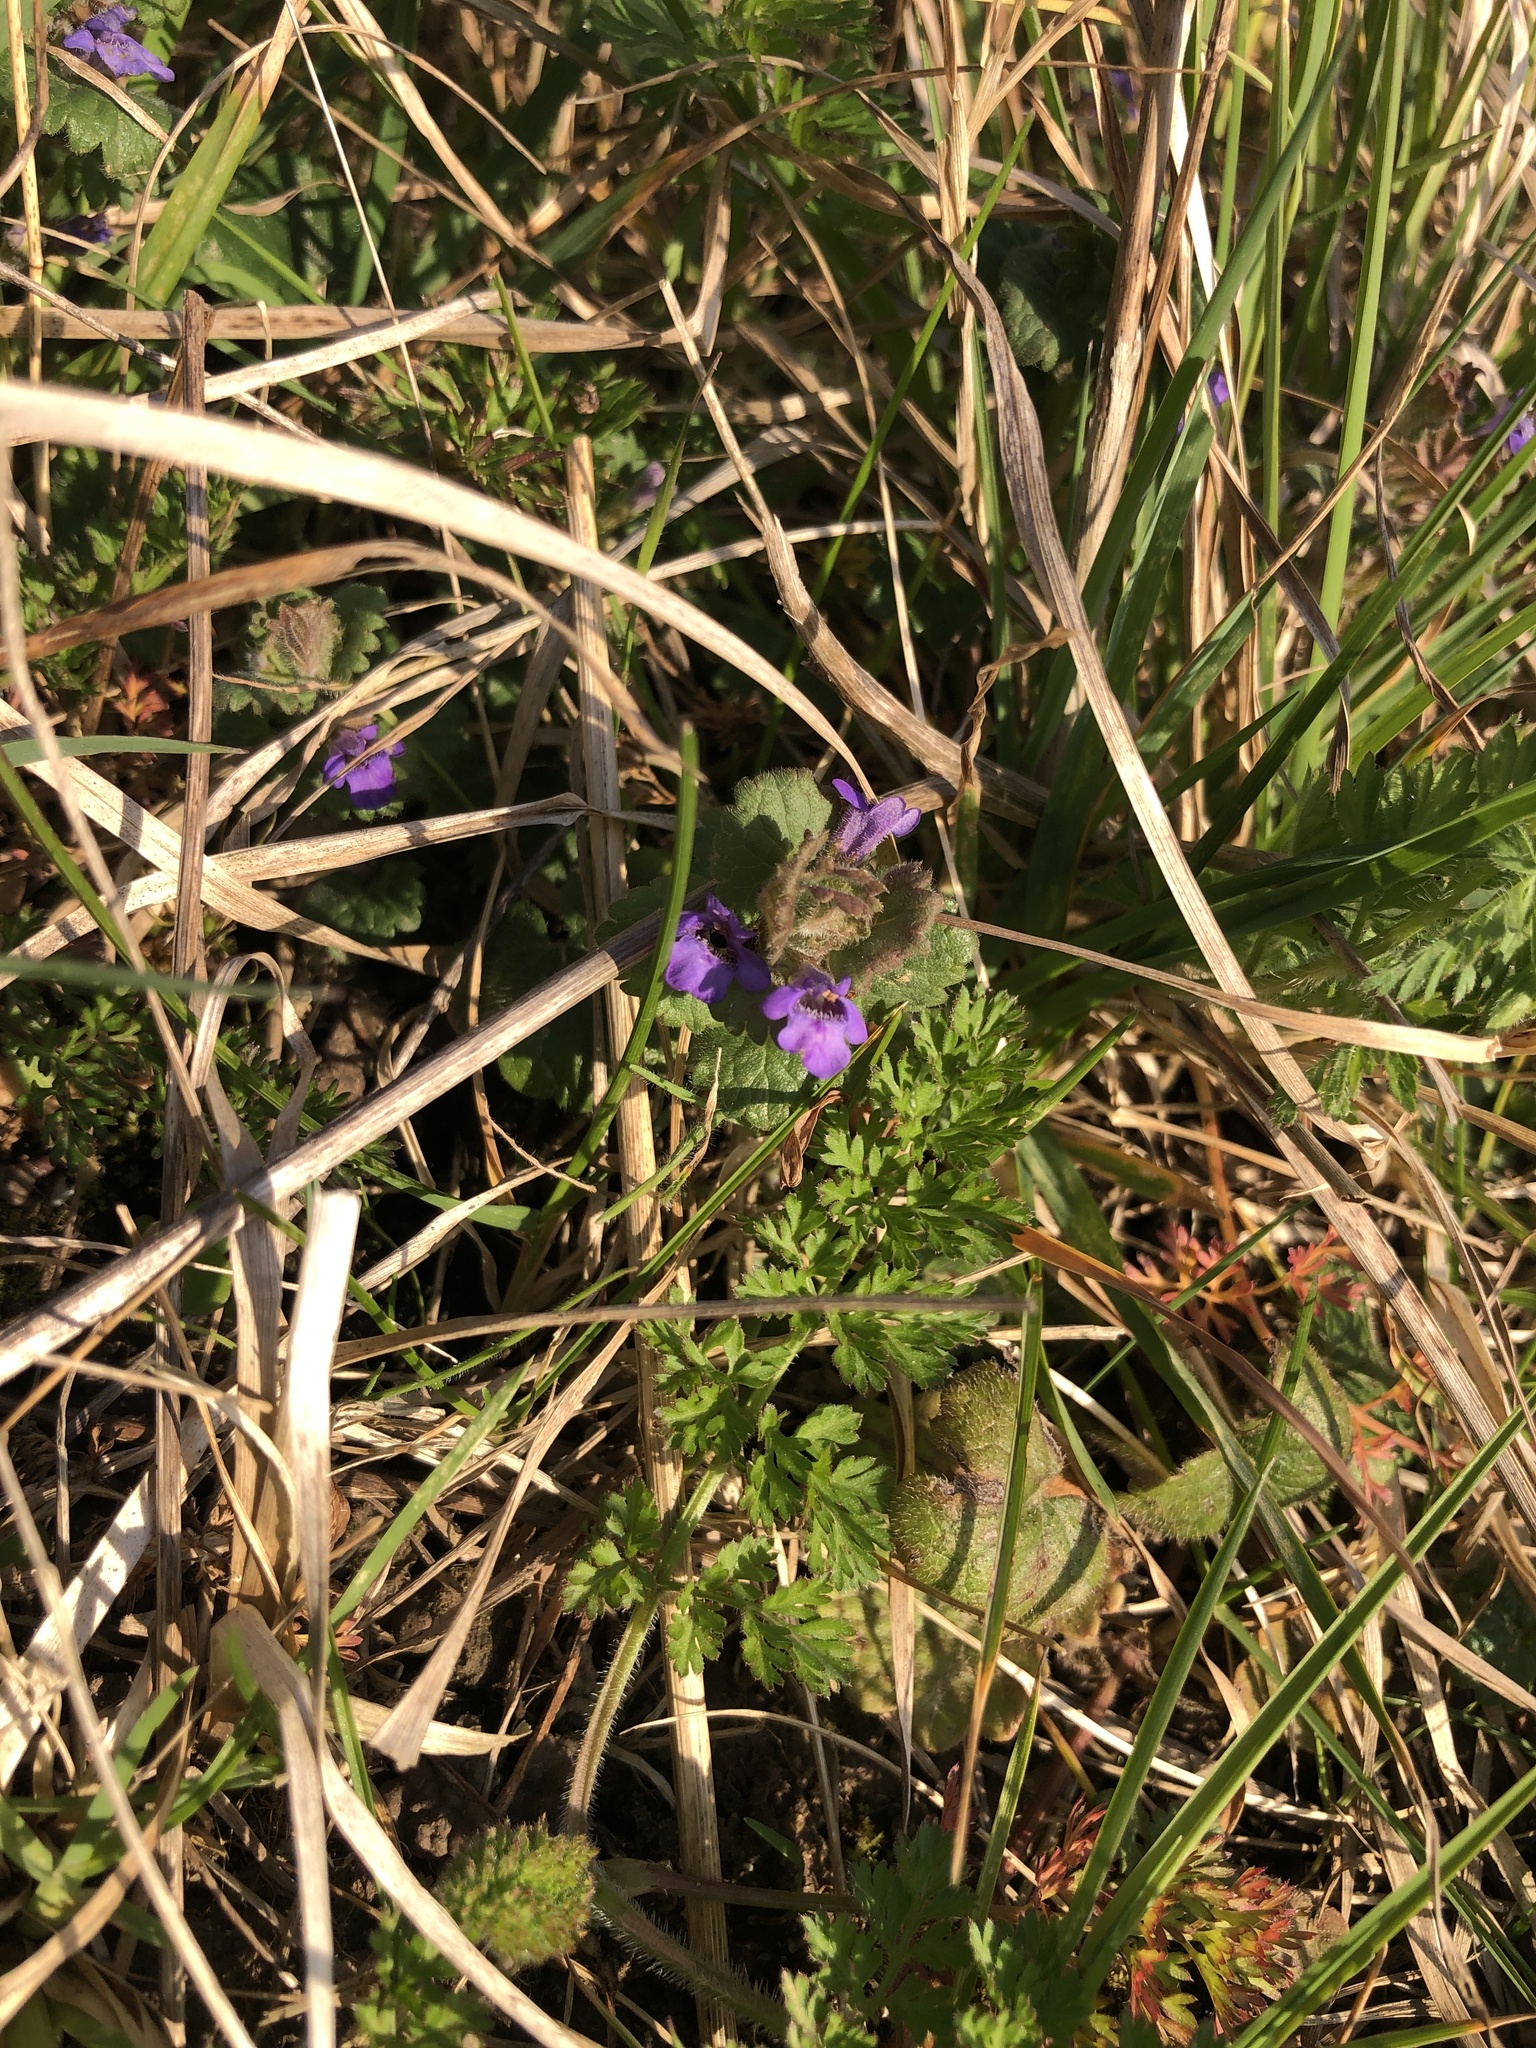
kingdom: Plantae
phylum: Tracheophyta
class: Magnoliopsida
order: Lamiales
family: Lamiaceae
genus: Glechoma
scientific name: Glechoma hederacea
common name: Ground ivy
